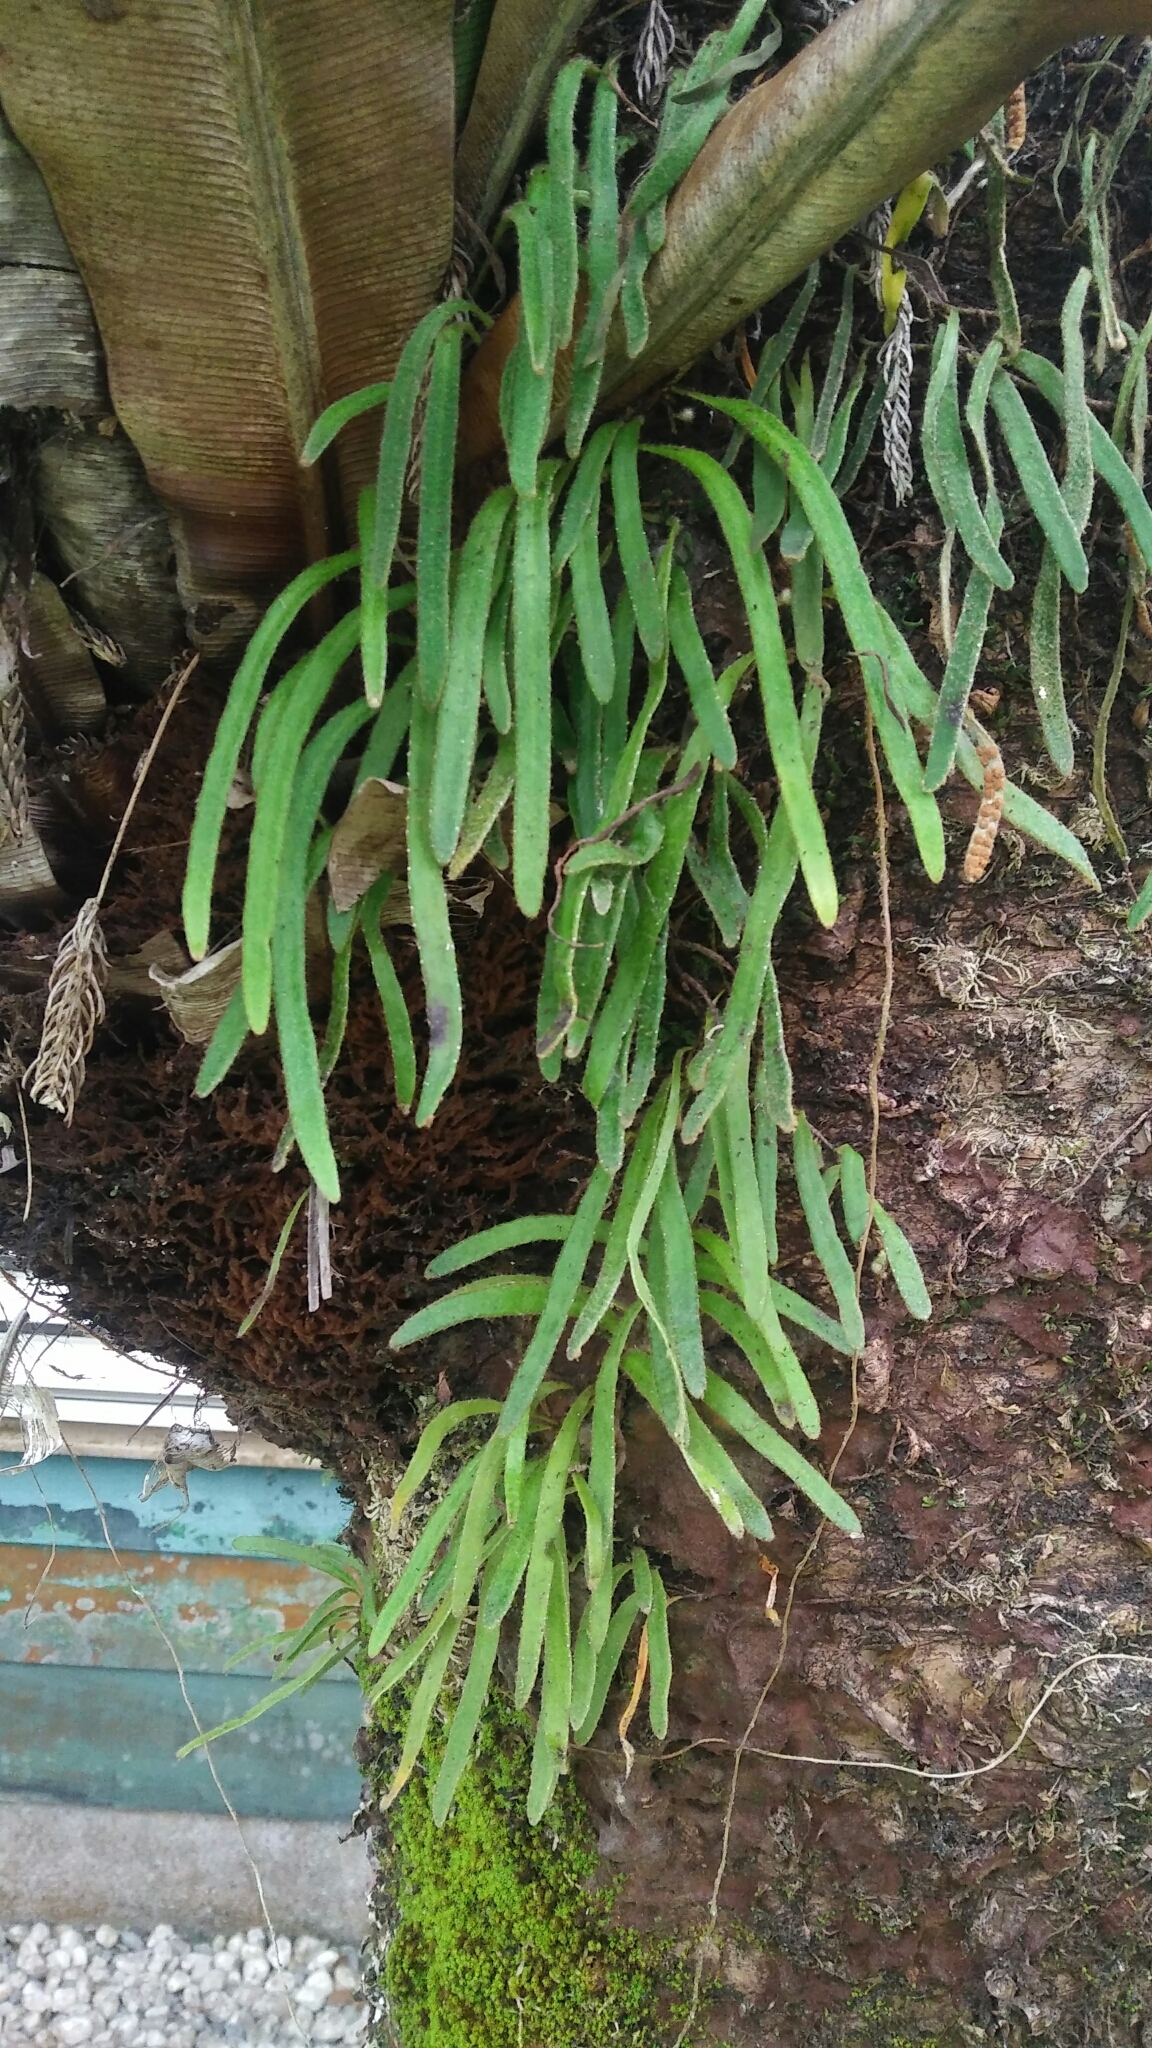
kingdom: Plantae
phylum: Tracheophyta
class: Polypodiopsida
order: Polypodiales
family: Polypodiaceae
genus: Pyrrosia
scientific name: Pyrrosia linearifolia
